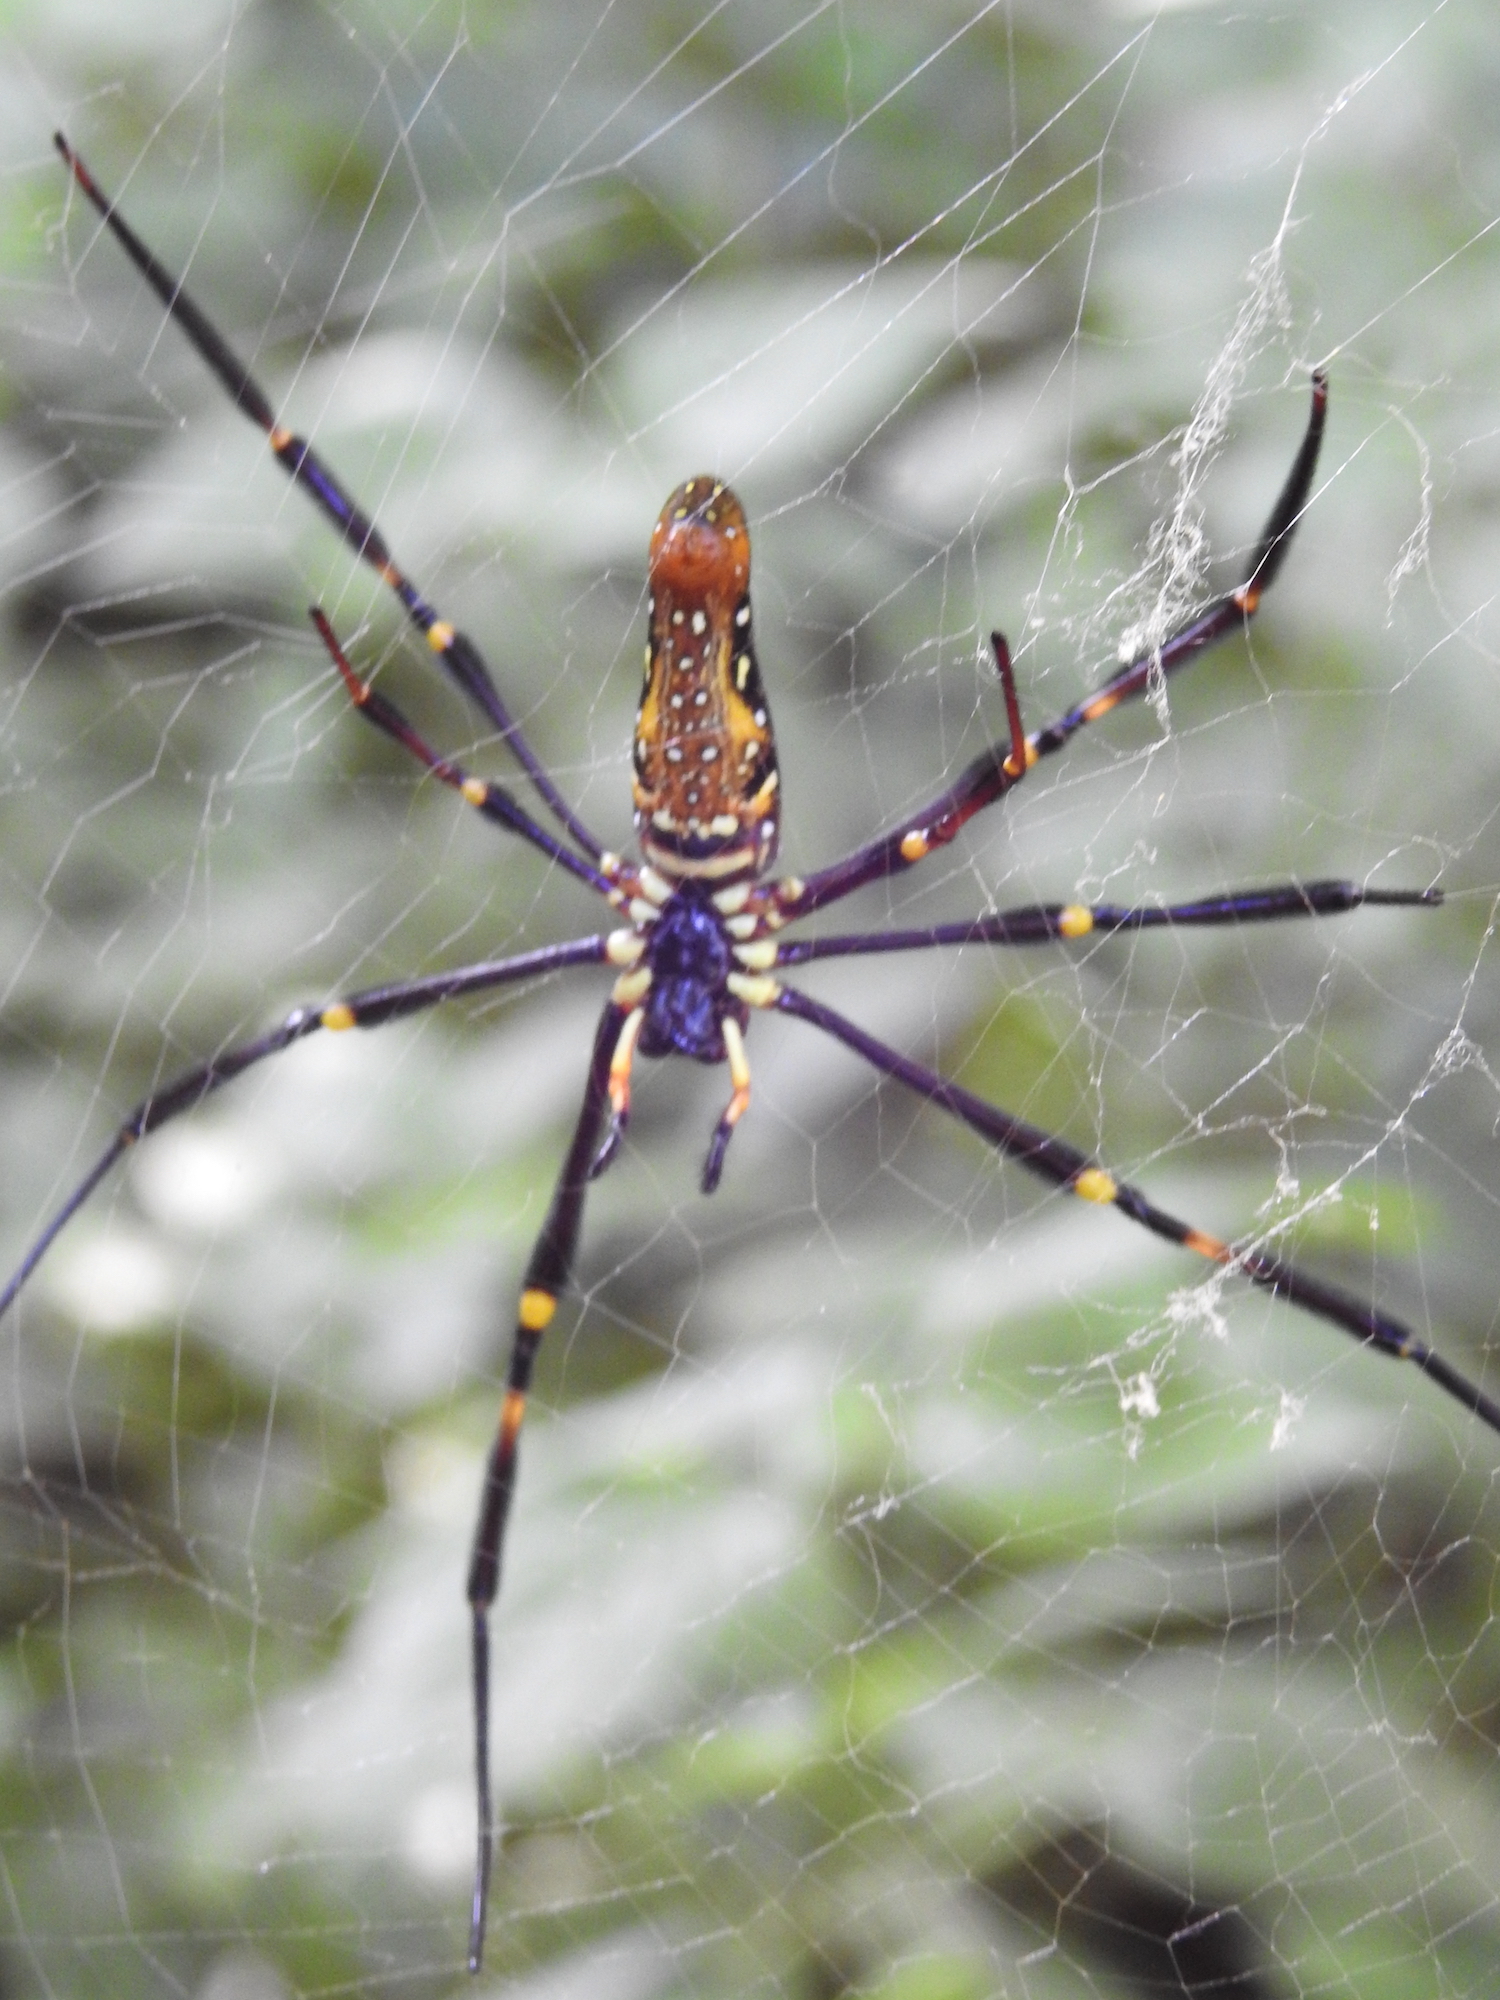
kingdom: Animalia
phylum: Arthropoda
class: Arachnida
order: Araneae
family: Araneidae
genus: Nephila
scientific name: Nephila pilipes
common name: Giant golden orb weaver
